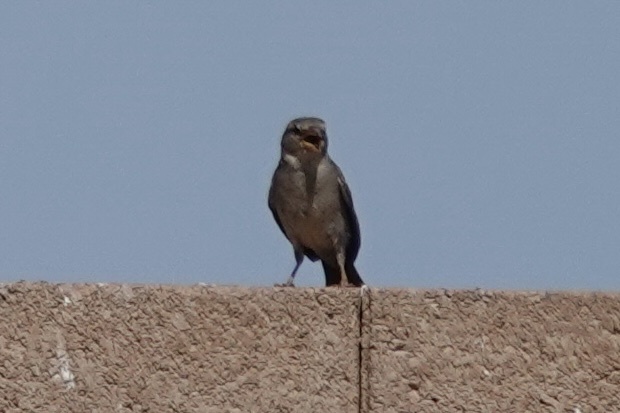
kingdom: Animalia
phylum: Chordata
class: Aves
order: Passeriformes
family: Passeridae
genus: Passer
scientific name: Passer domesticus
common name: House sparrow
